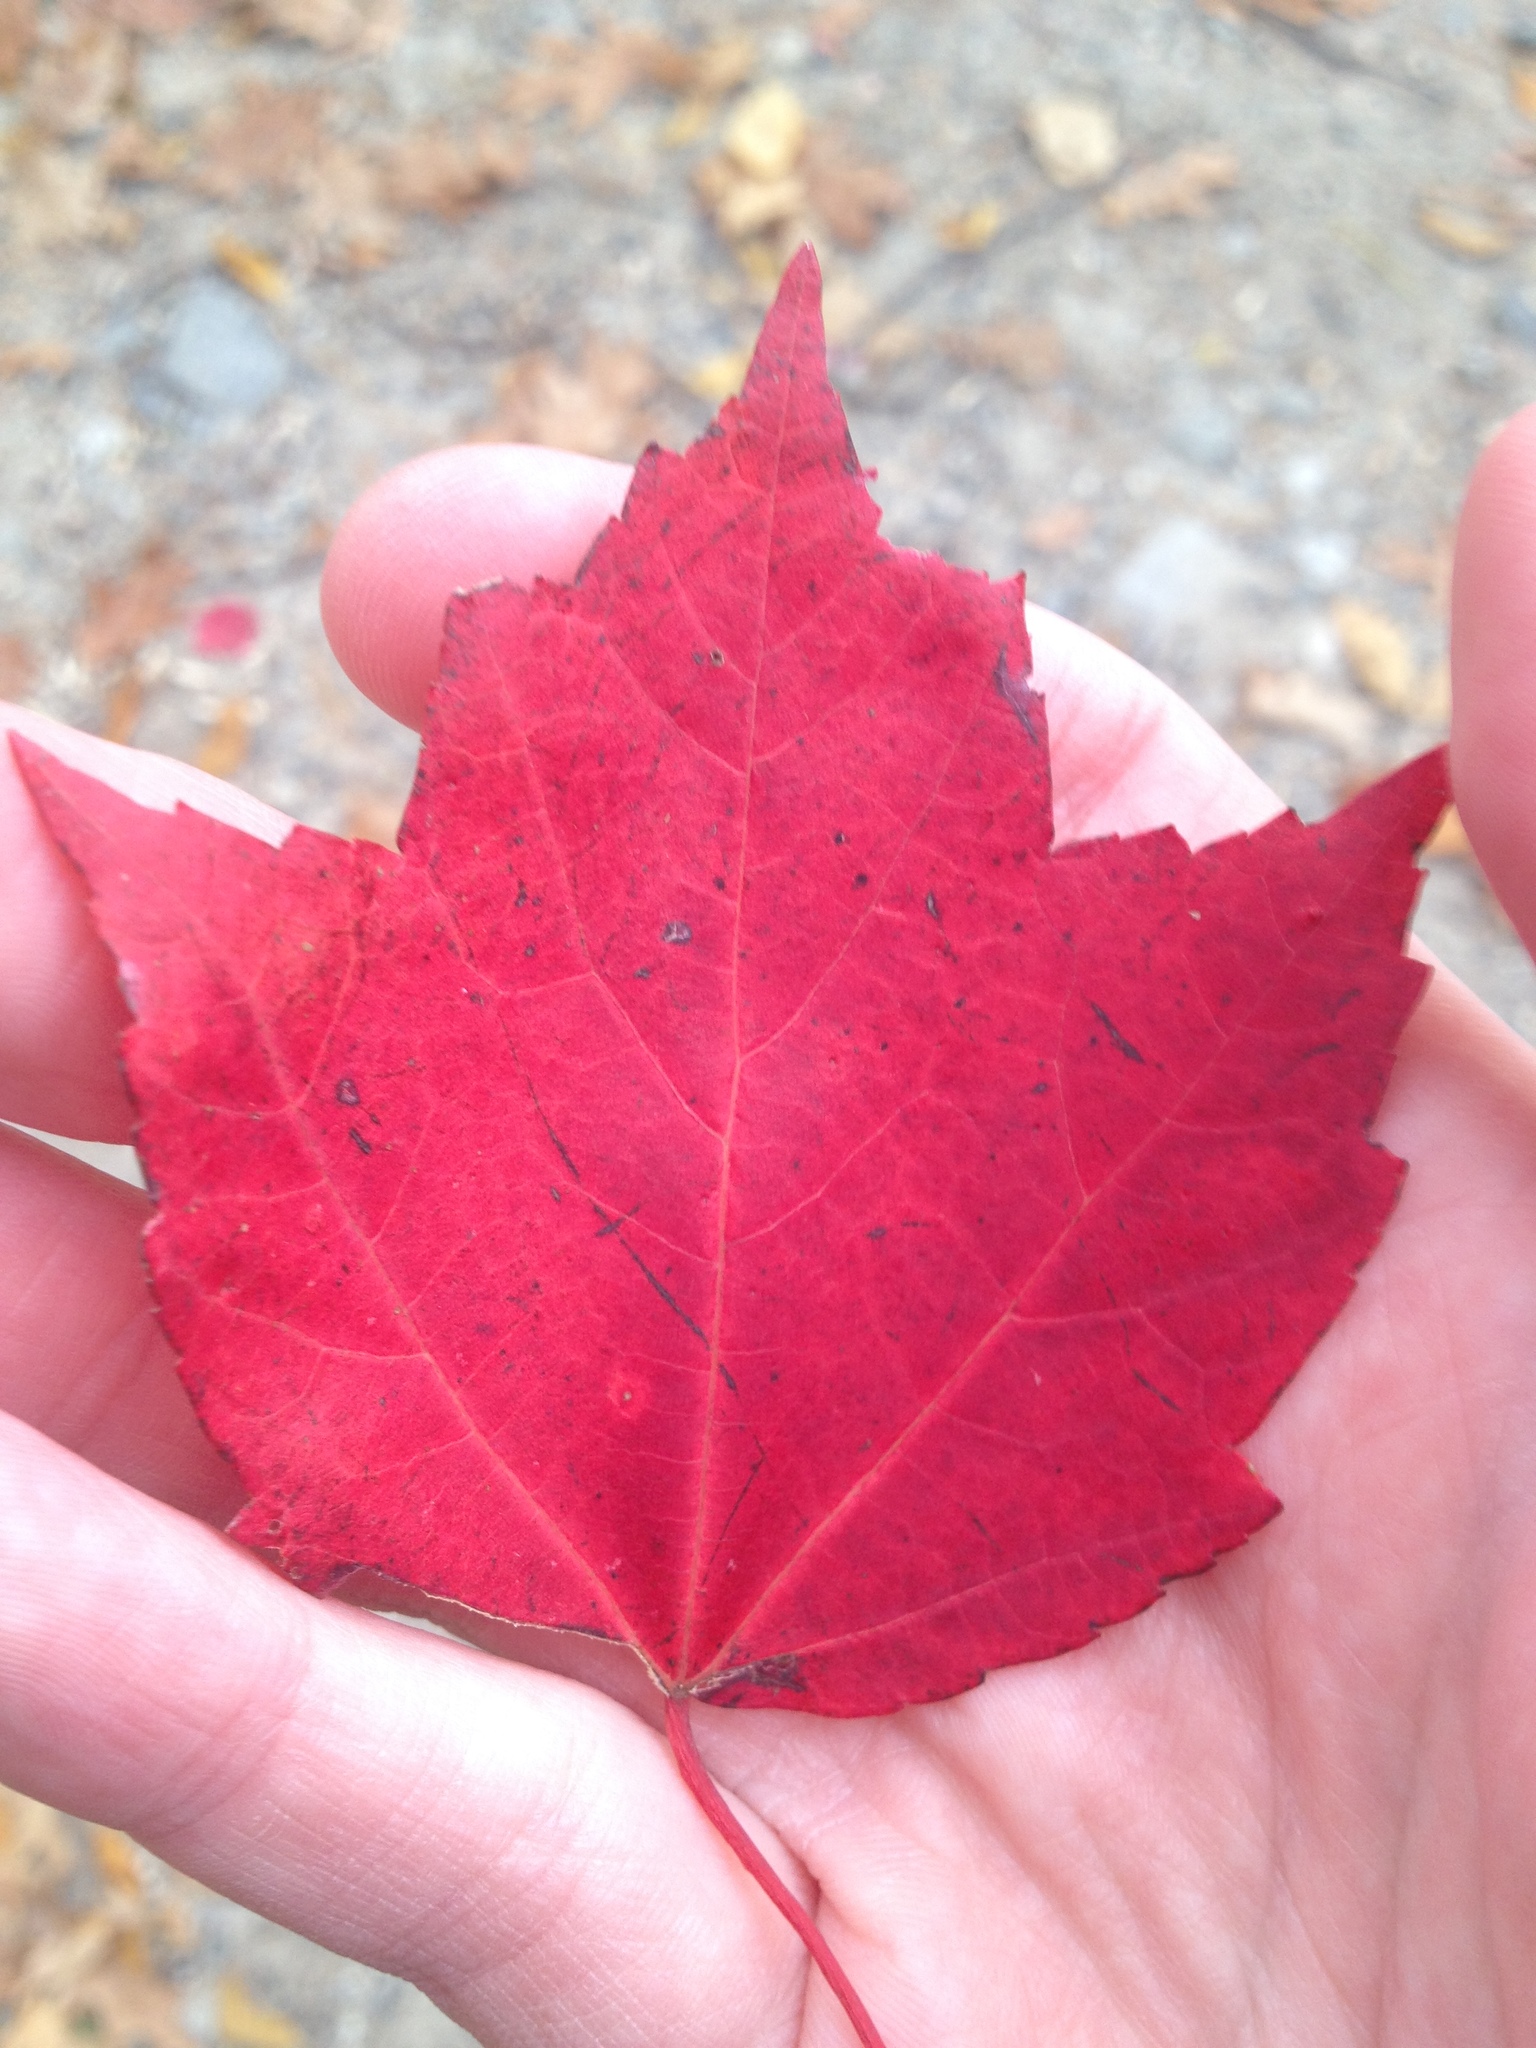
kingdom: Plantae
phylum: Tracheophyta
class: Magnoliopsida
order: Sapindales
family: Sapindaceae
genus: Acer
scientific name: Acer rubrum
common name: Red maple
